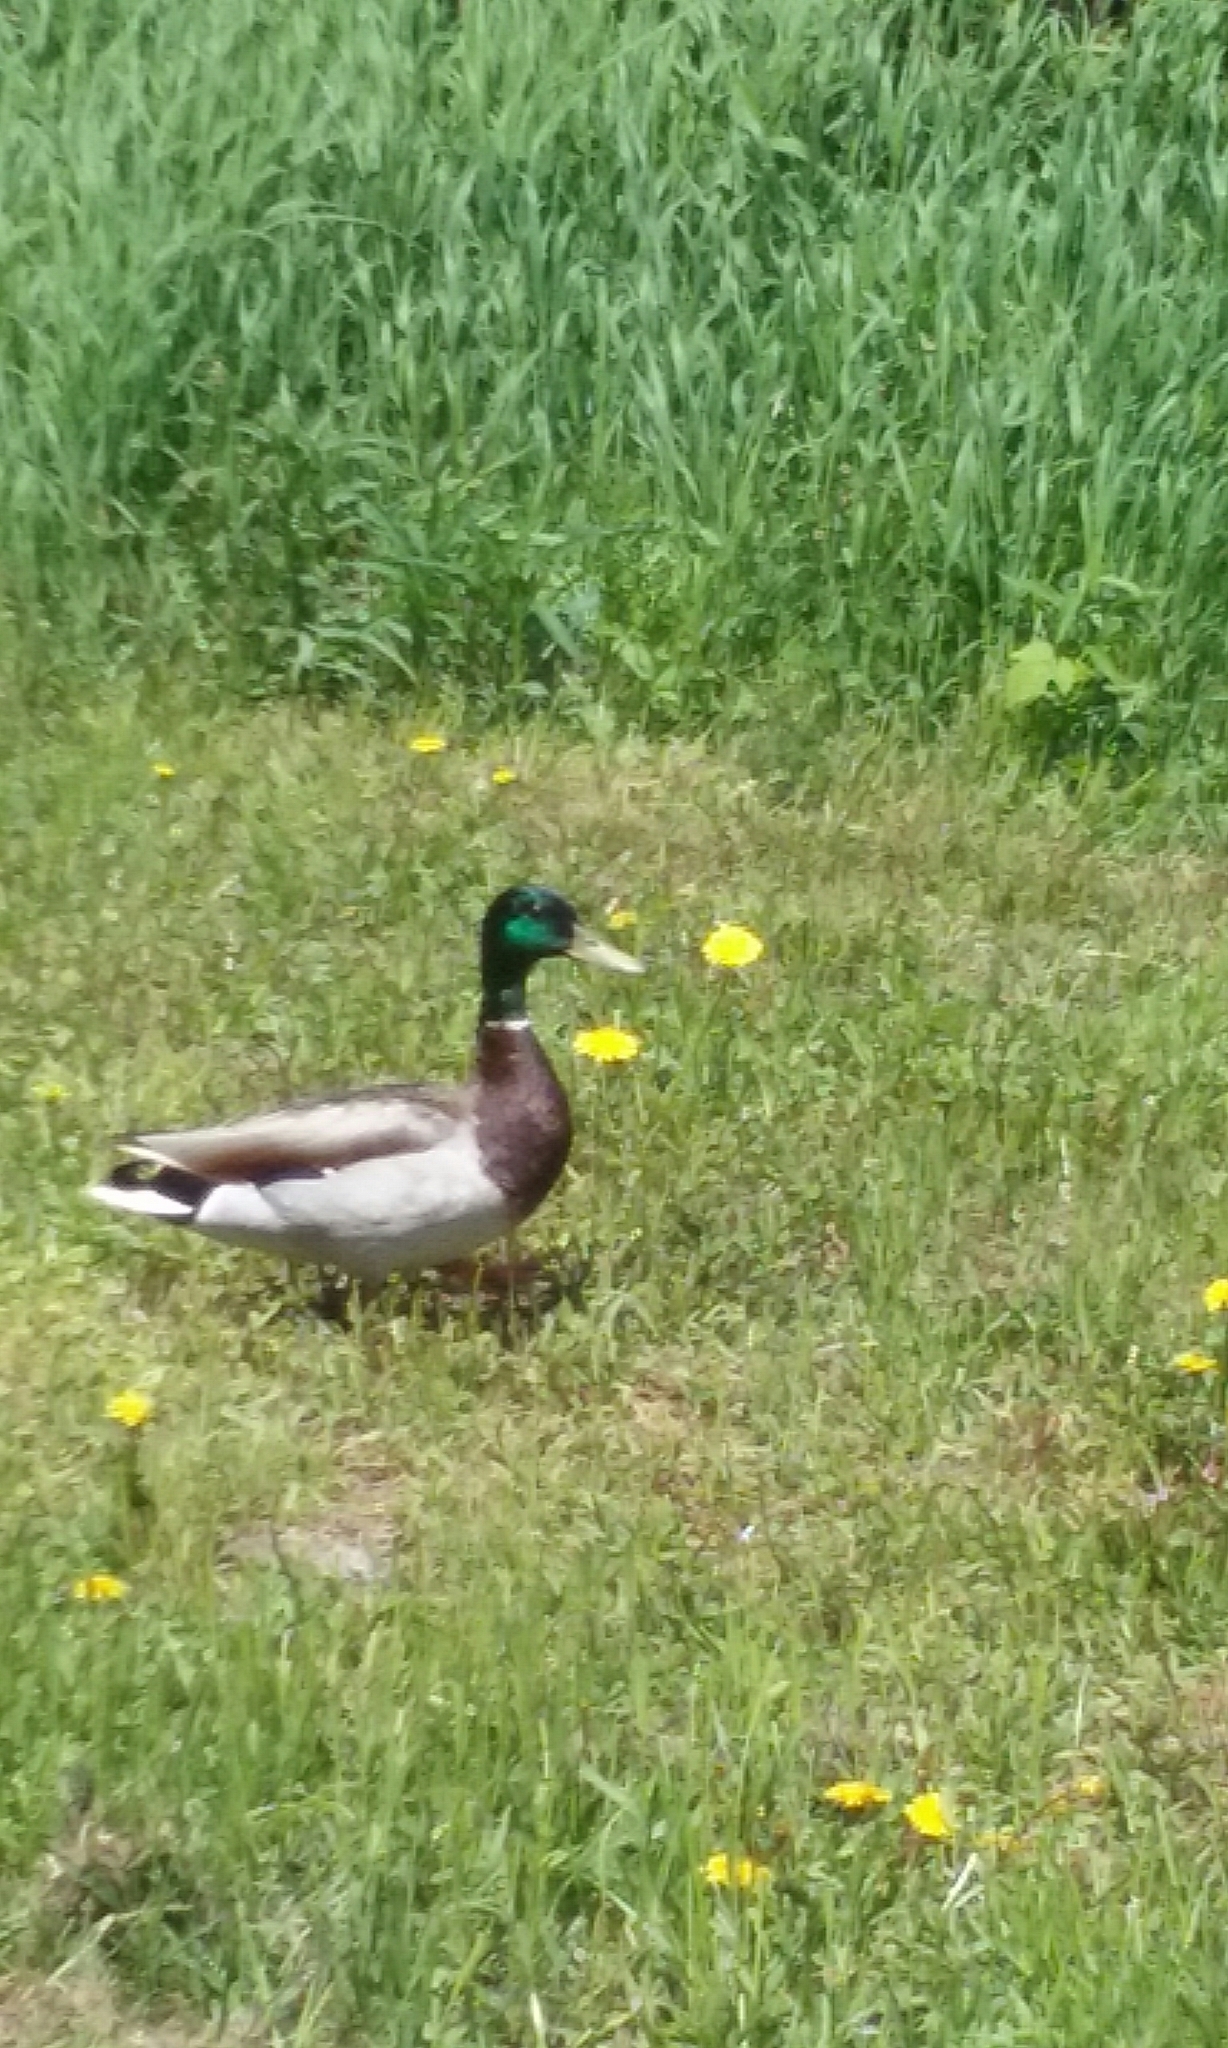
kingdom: Animalia
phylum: Chordata
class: Aves
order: Anseriformes
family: Anatidae
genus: Anas
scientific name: Anas platyrhynchos
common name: Mallard
